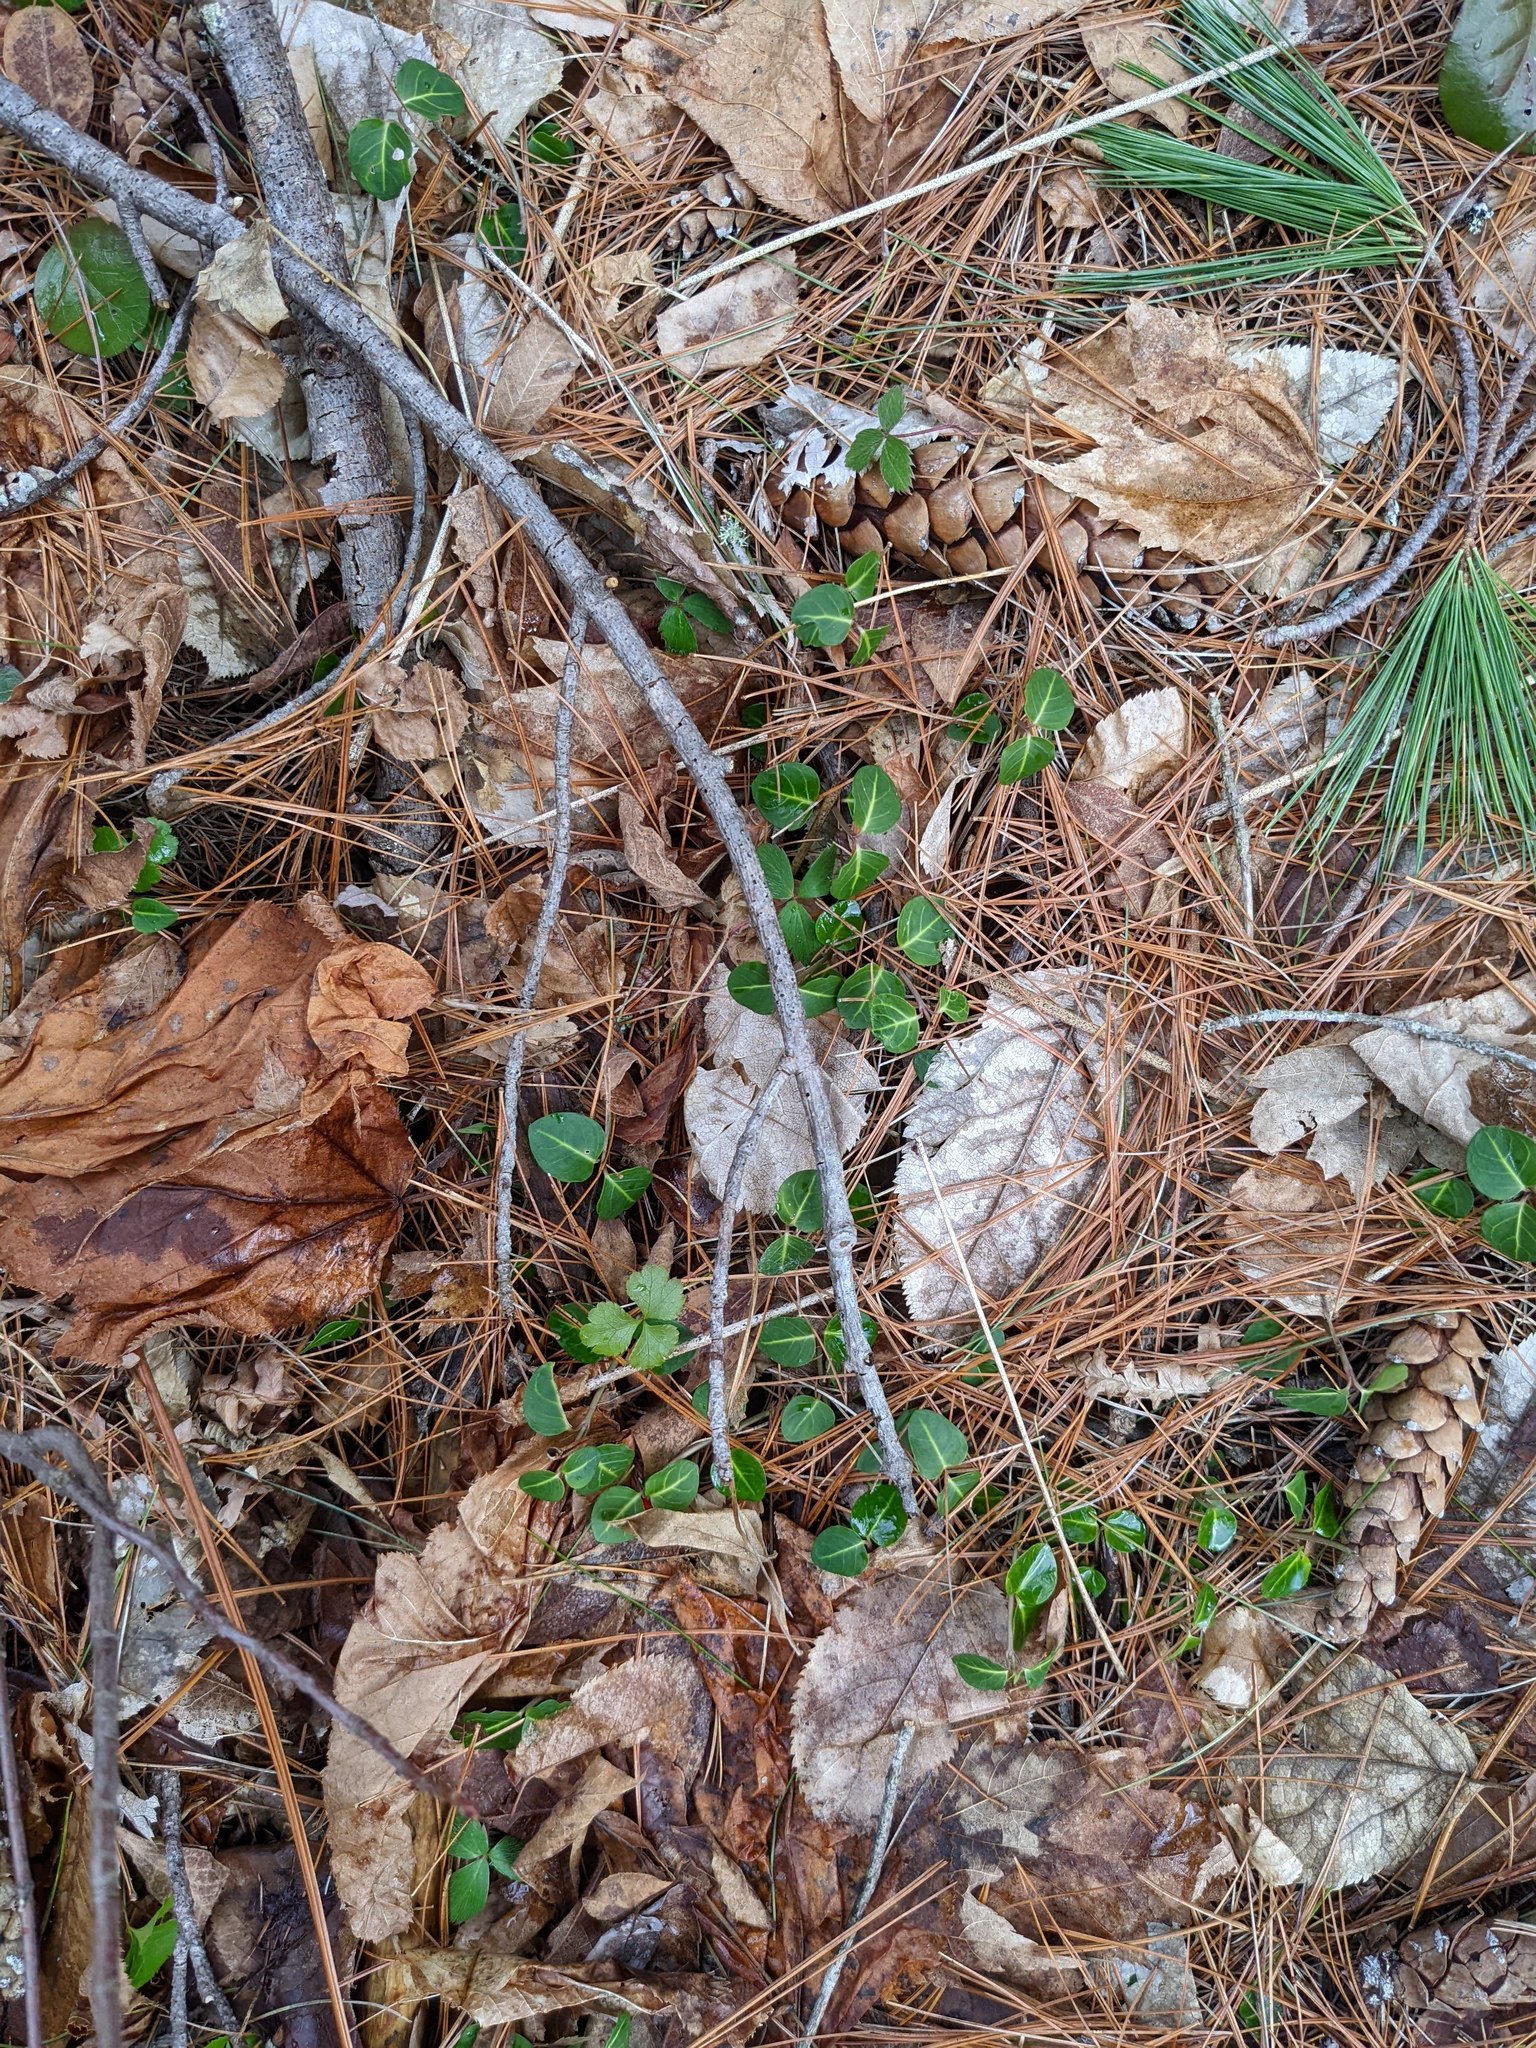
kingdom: Plantae
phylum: Tracheophyta
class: Magnoliopsida
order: Gentianales
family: Rubiaceae
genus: Mitchella
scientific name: Mitchella repens
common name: Partridge-berry
